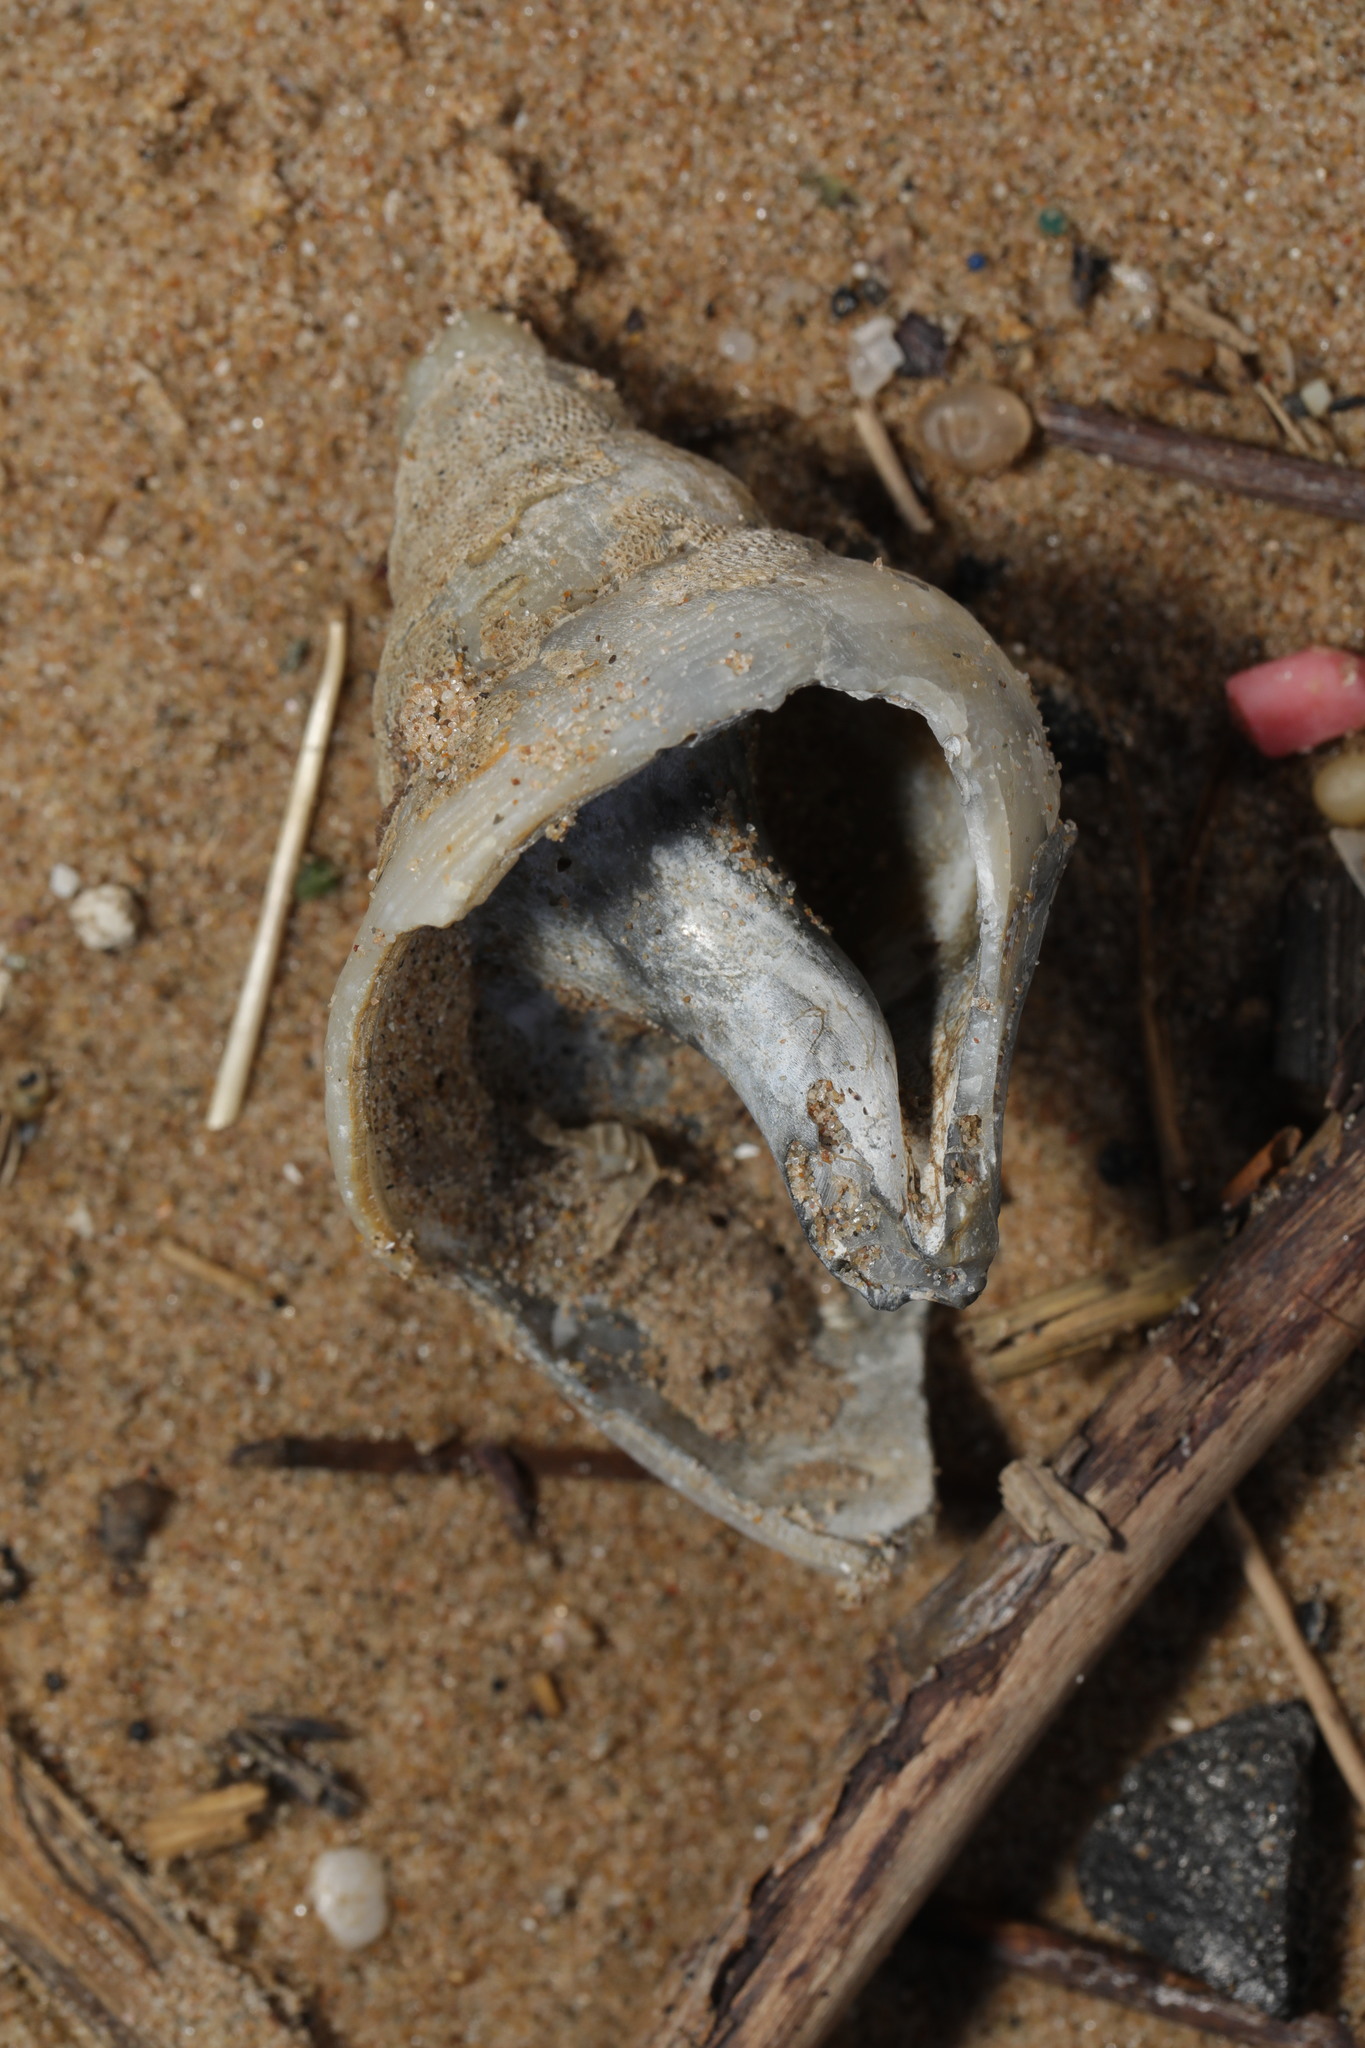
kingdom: Animalia
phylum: Mollusca
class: Gastropoda
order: Neogastropoda
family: Buccinidae
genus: Buccinum
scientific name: Buccinum undatum
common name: Common whelk
